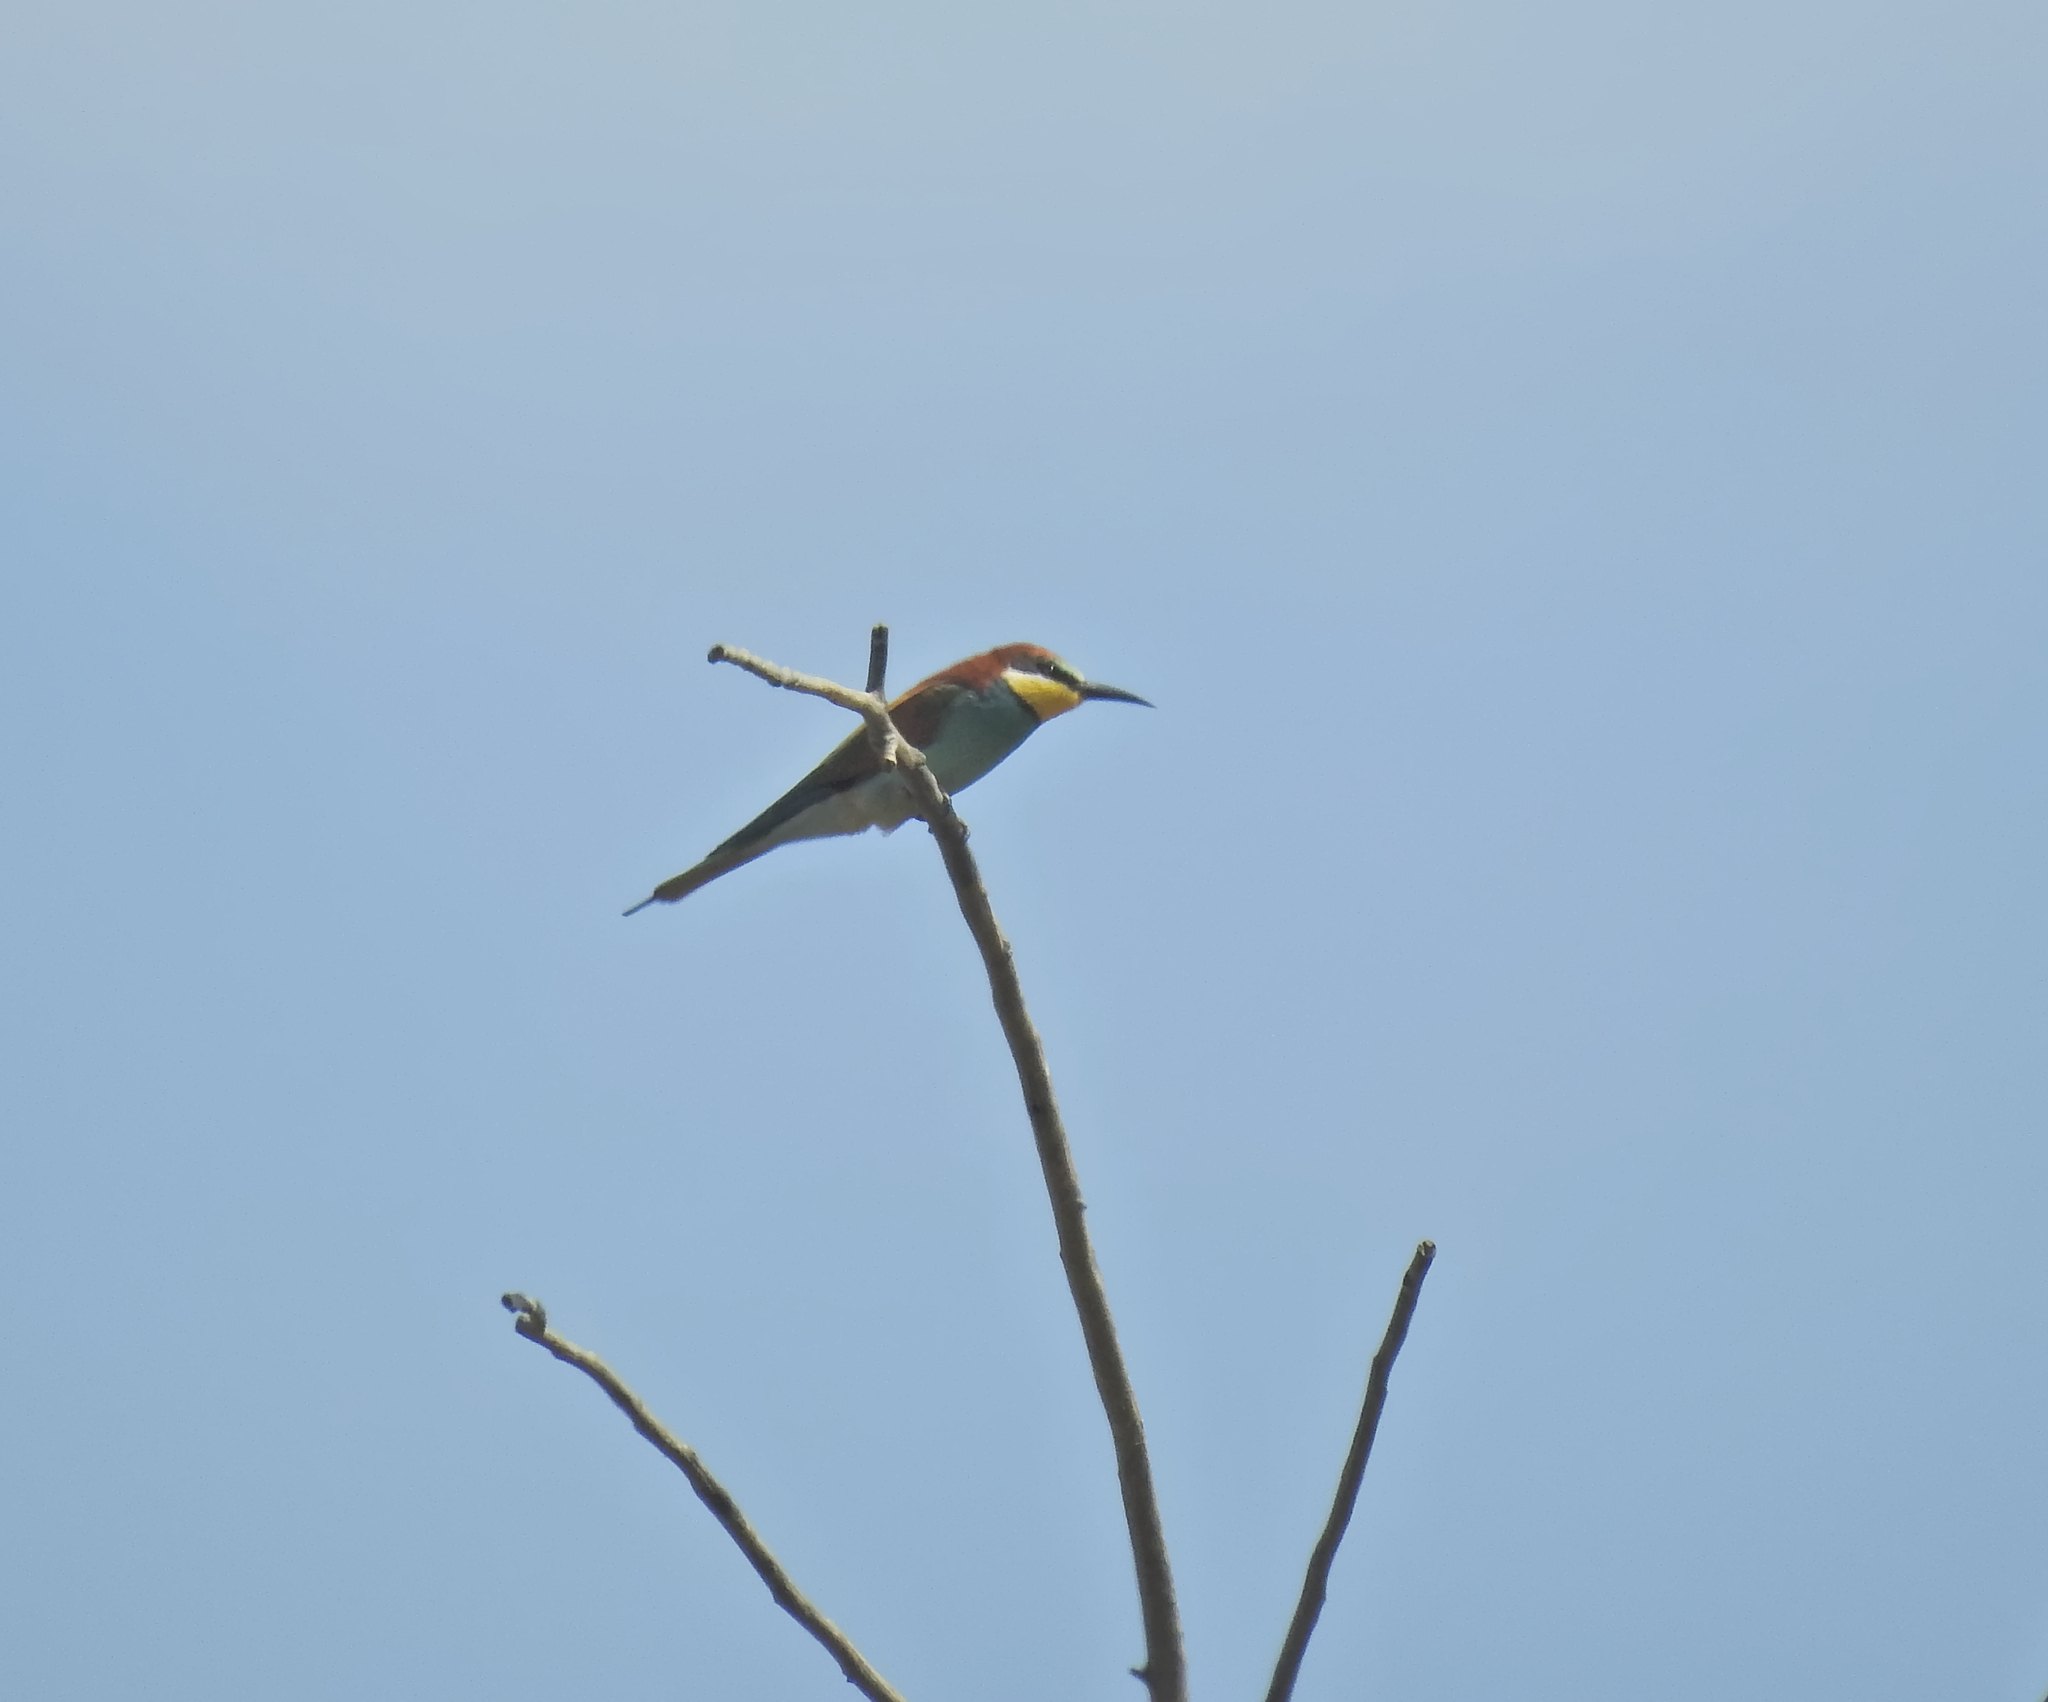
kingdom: Animalia
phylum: Chordata
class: Aves
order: Coraciiformes
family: Meropidae
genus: Merops
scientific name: Merops apiaster
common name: European bee-eater
